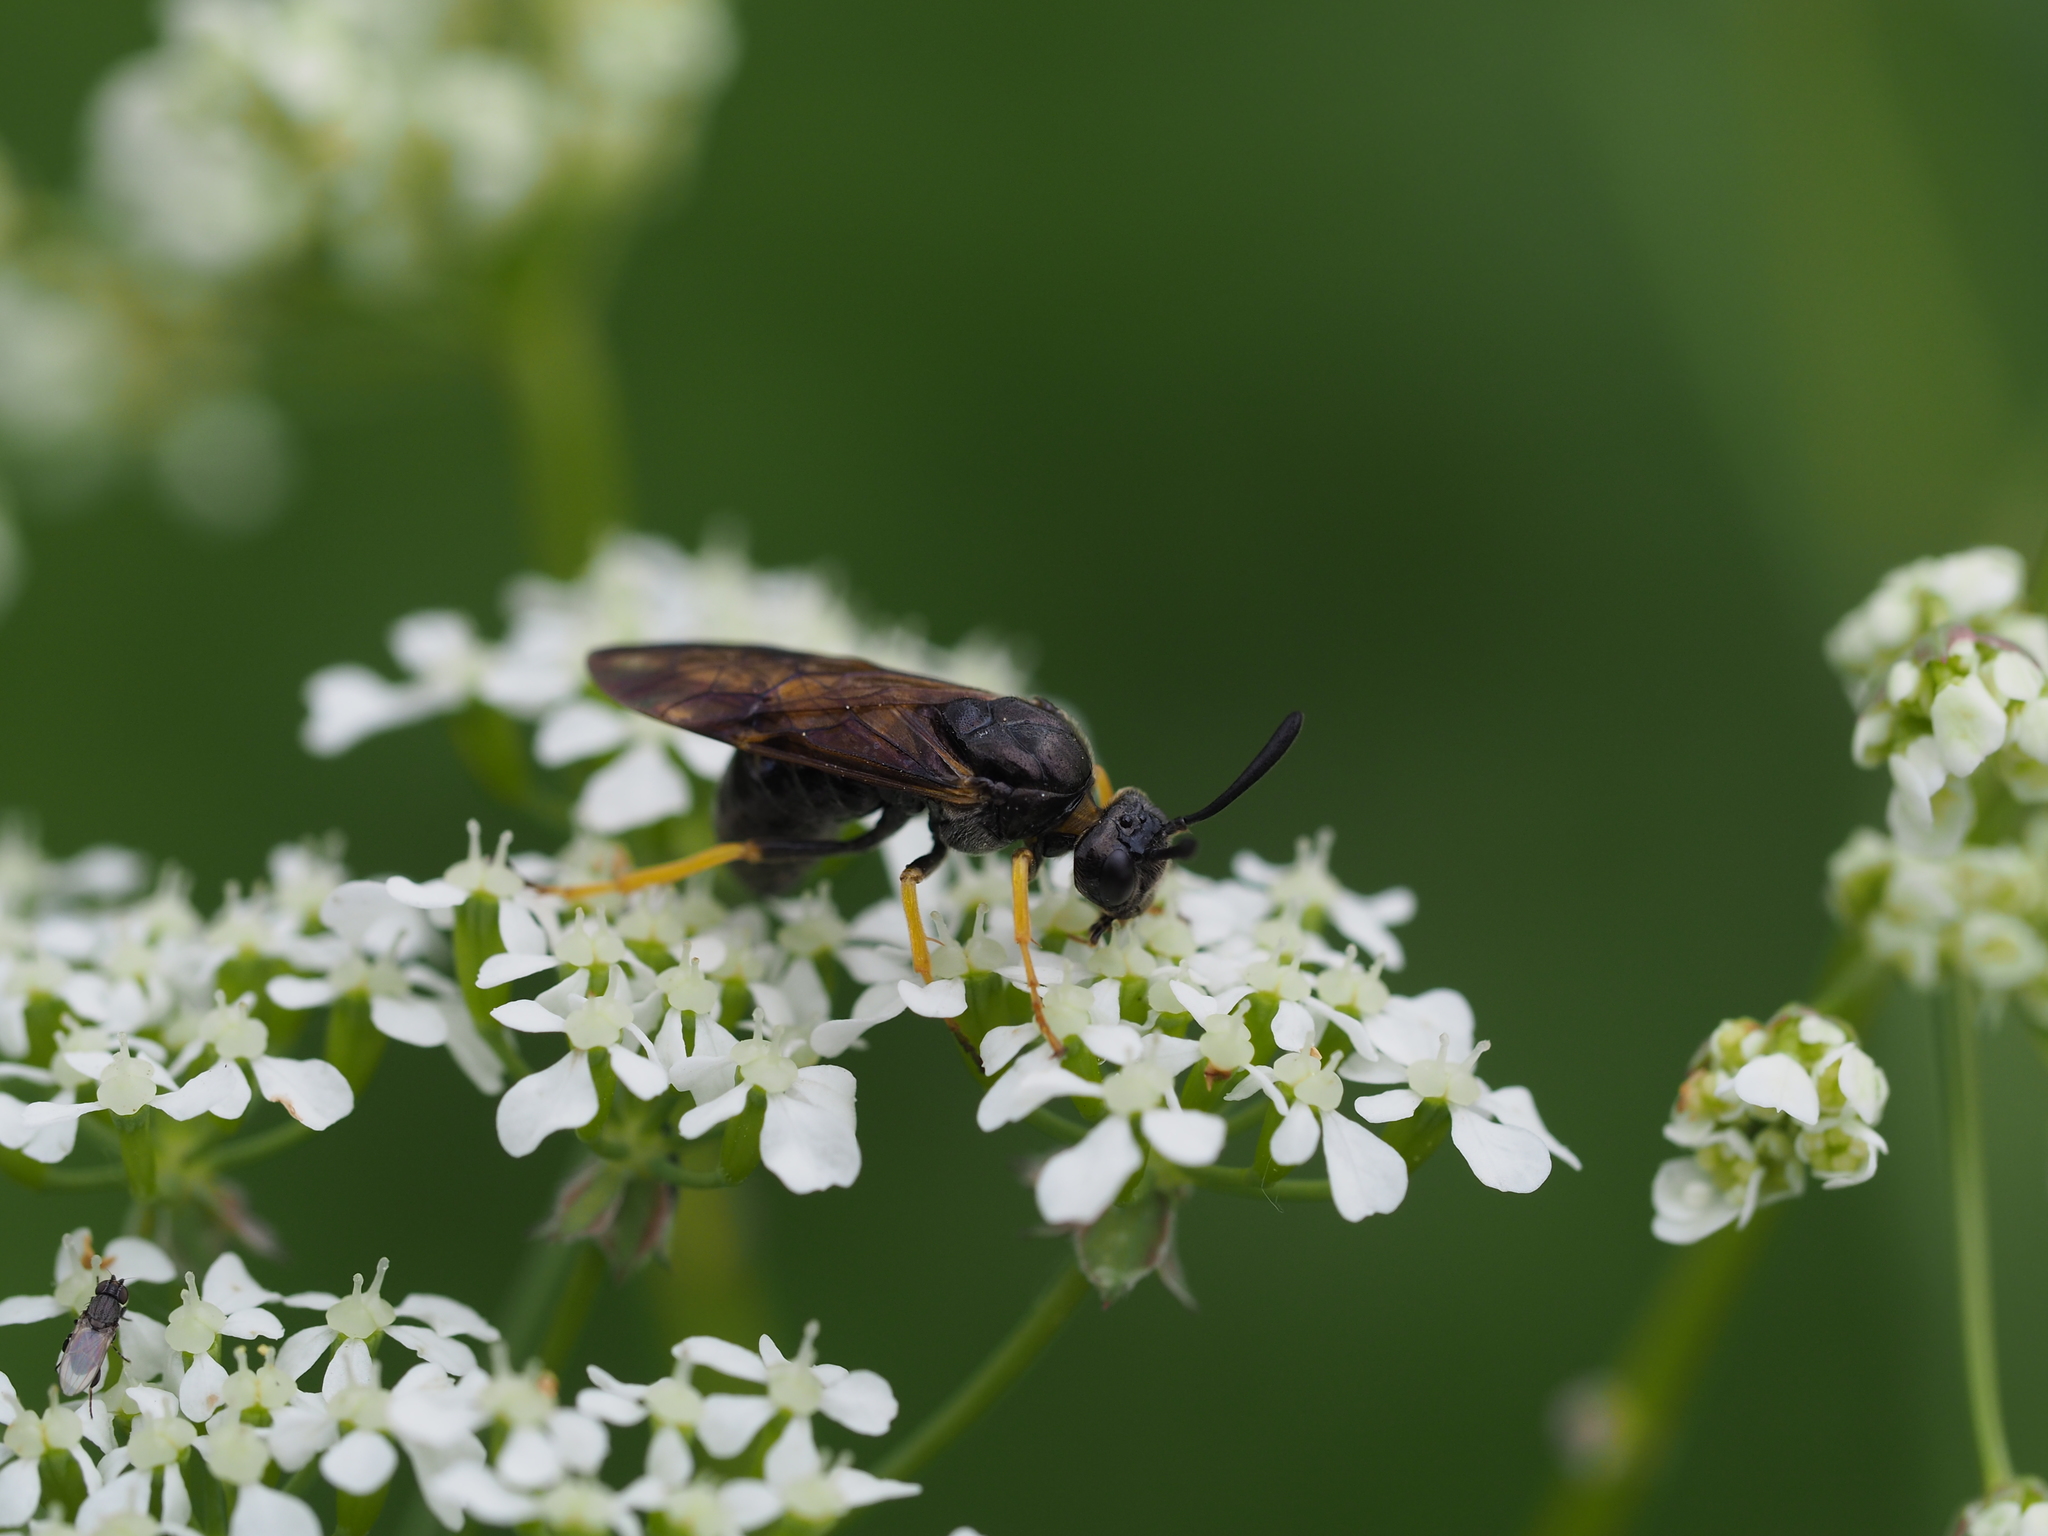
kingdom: Animalia
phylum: Arthropoda
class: Insecta
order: Hymenoptera
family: Argidae
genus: Arge
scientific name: Arge rustica
